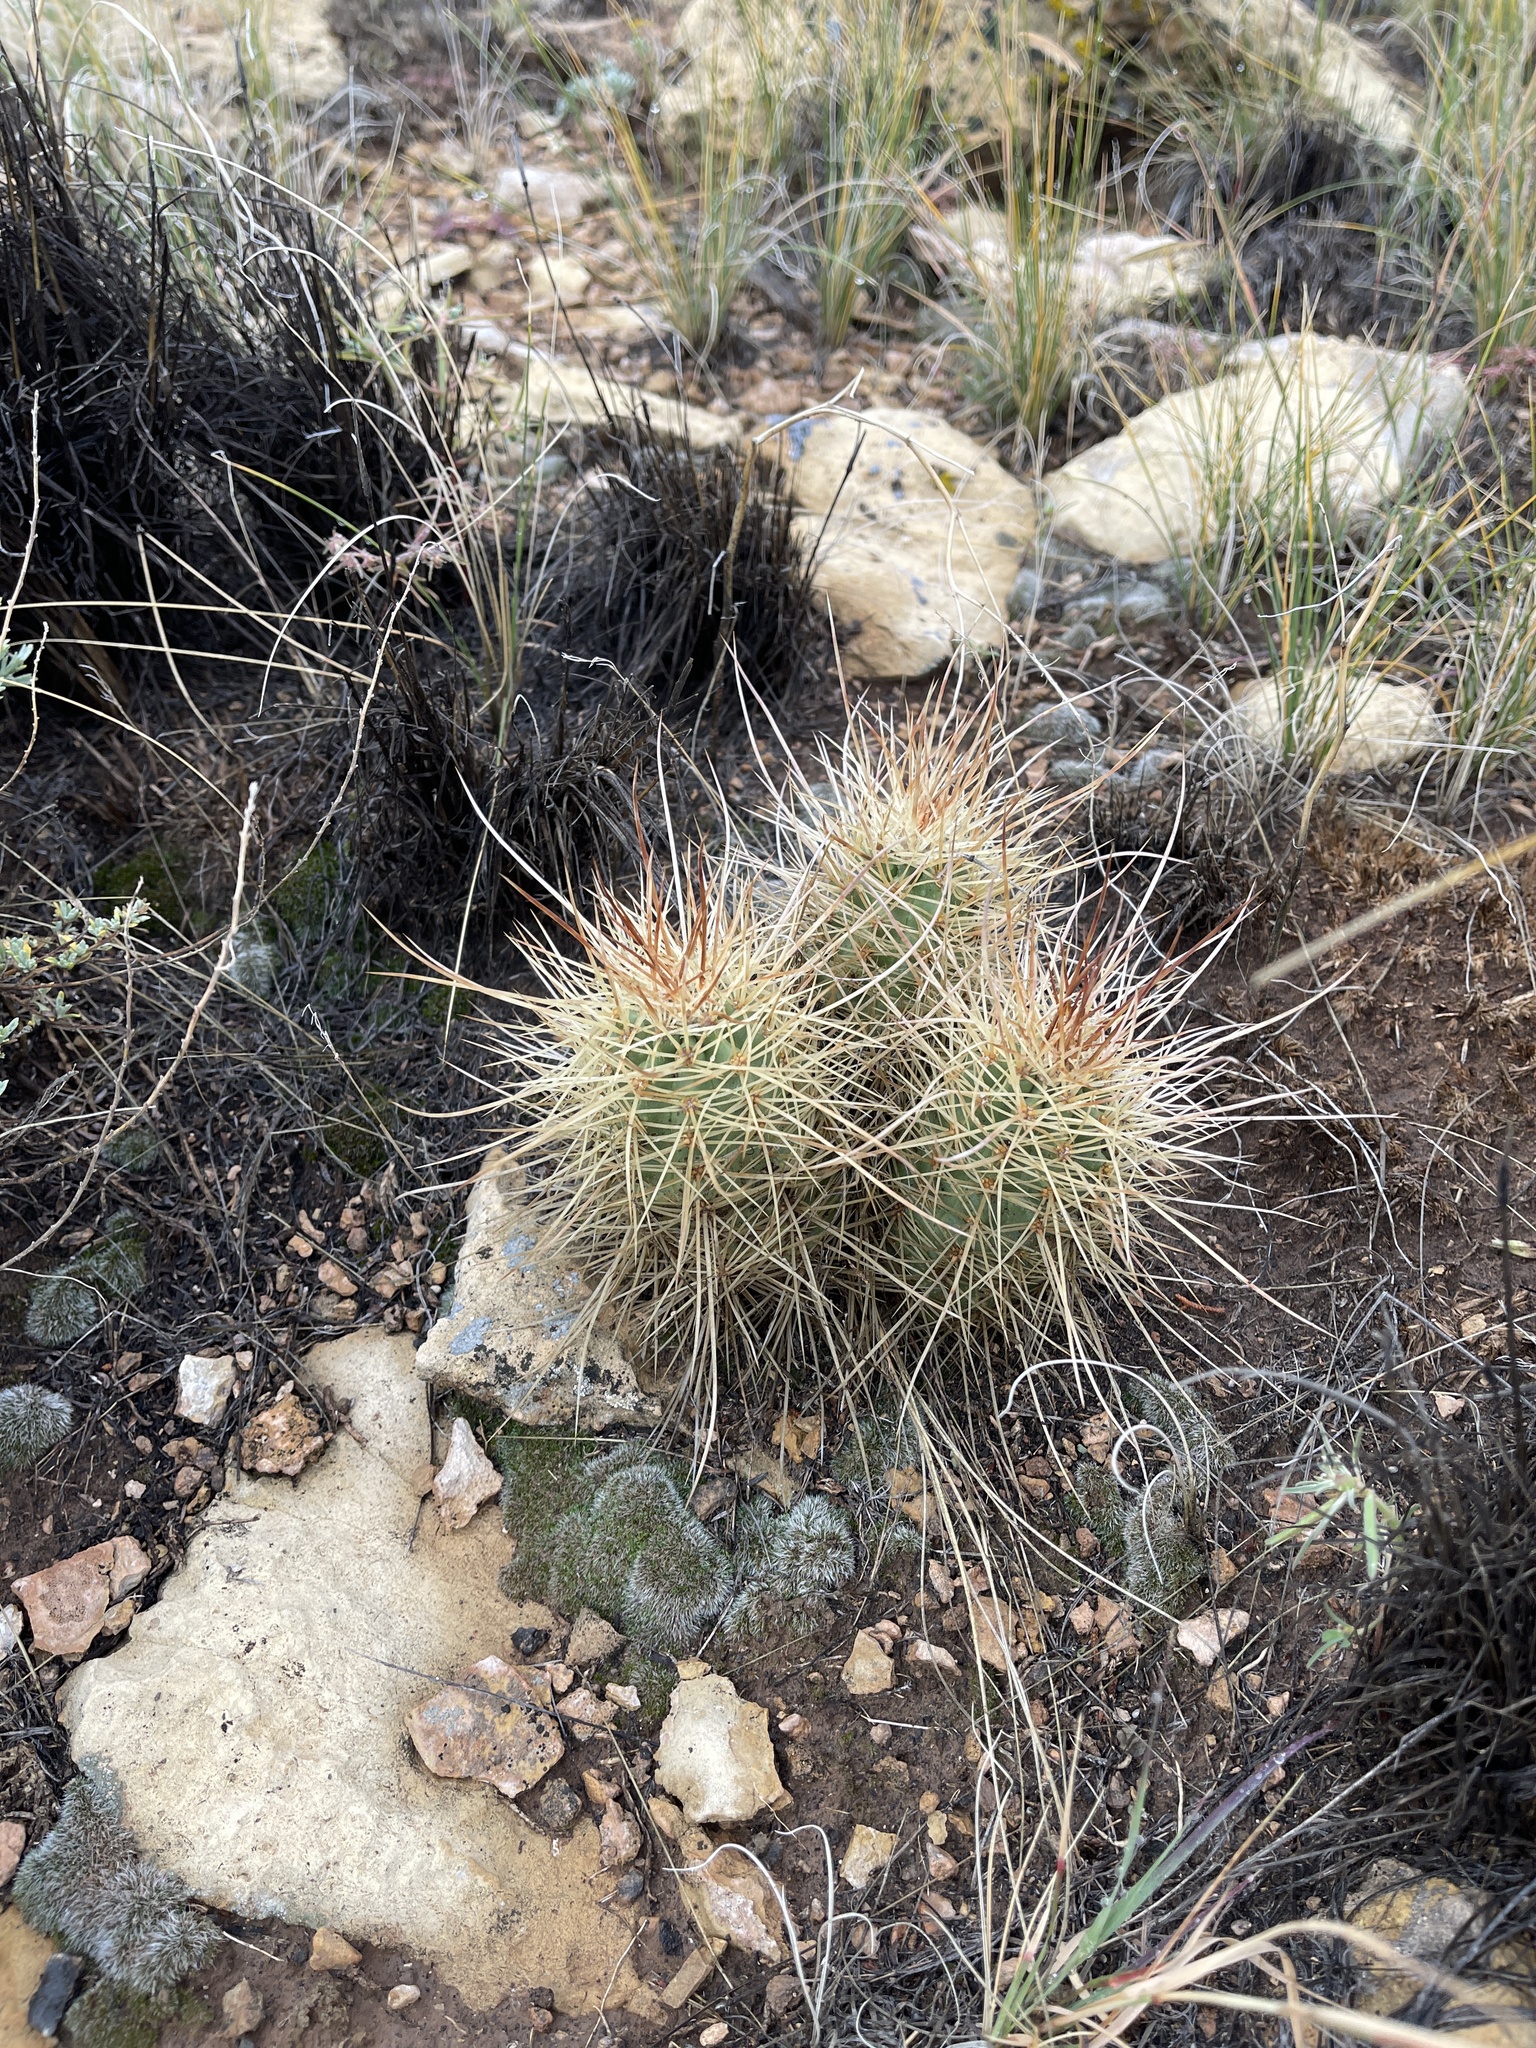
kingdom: Plantae
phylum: Tracheophyta
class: Magnoliopsida
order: Caryophyllales
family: Cactaceae
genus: Echinocereus
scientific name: Echinocereus triglochidiatus
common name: Claretcup hedgehog
